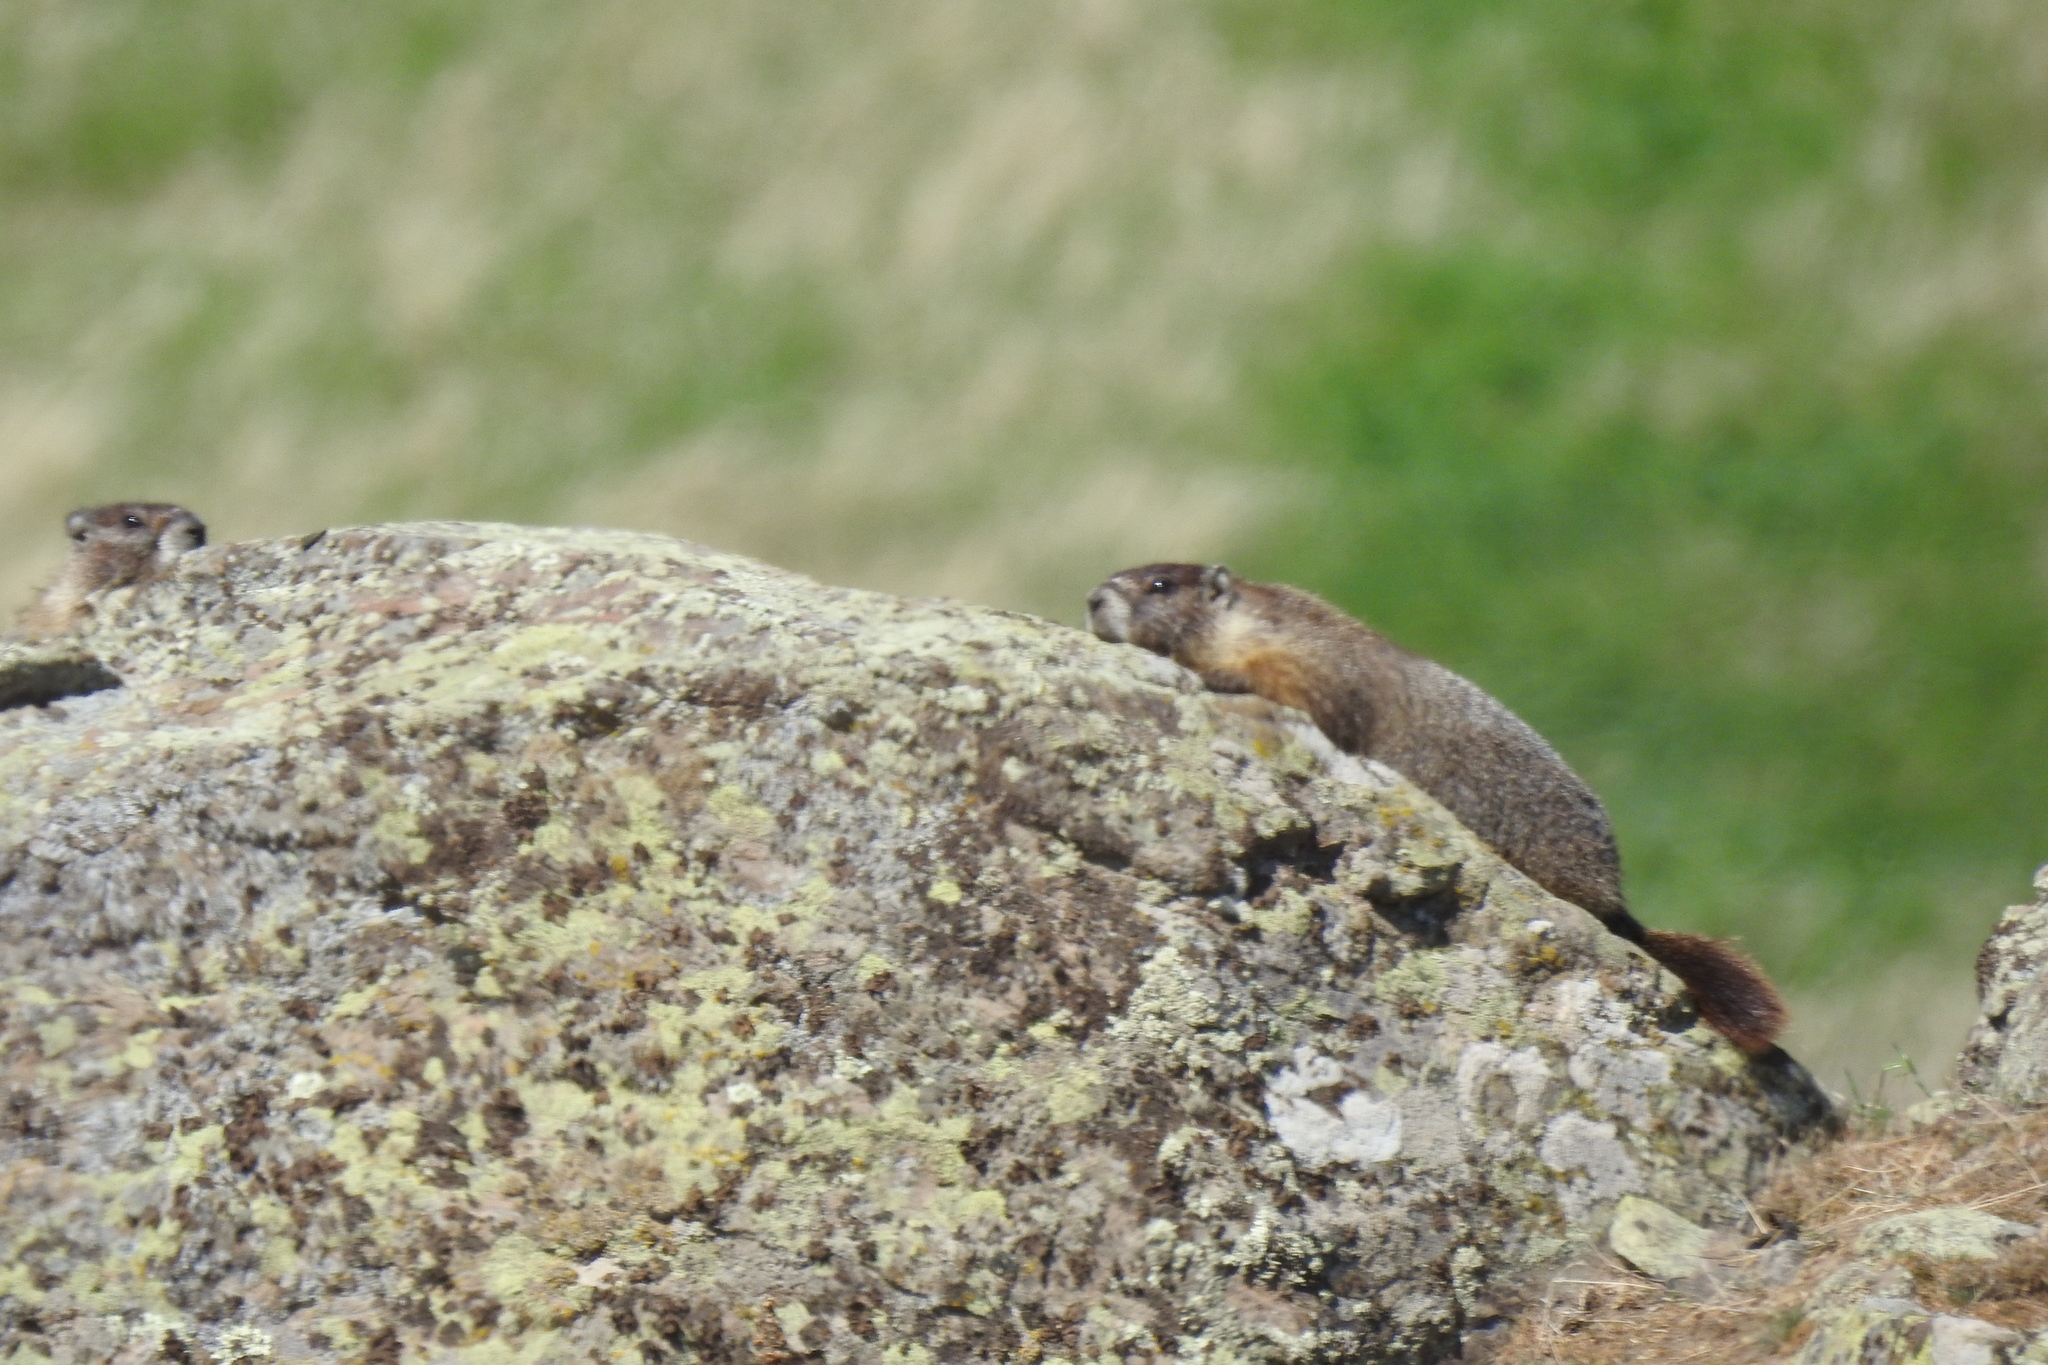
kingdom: Animalia
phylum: Chordata
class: Mammalia
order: Rodentia
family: Sciuridae
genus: Marmota
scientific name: Marmota flaviventris
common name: Yellow-bellied marmot
